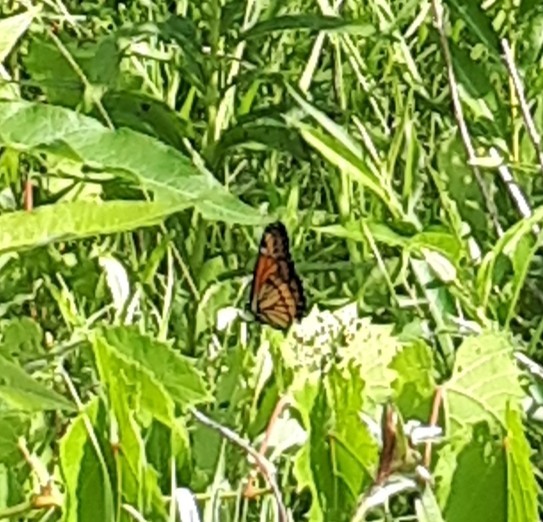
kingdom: Animalia
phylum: Arthropoda
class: Insecta
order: Lepidoptera
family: Nymphalidae
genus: Limenitis
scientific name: Limenitis archippus
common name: Viceroy
